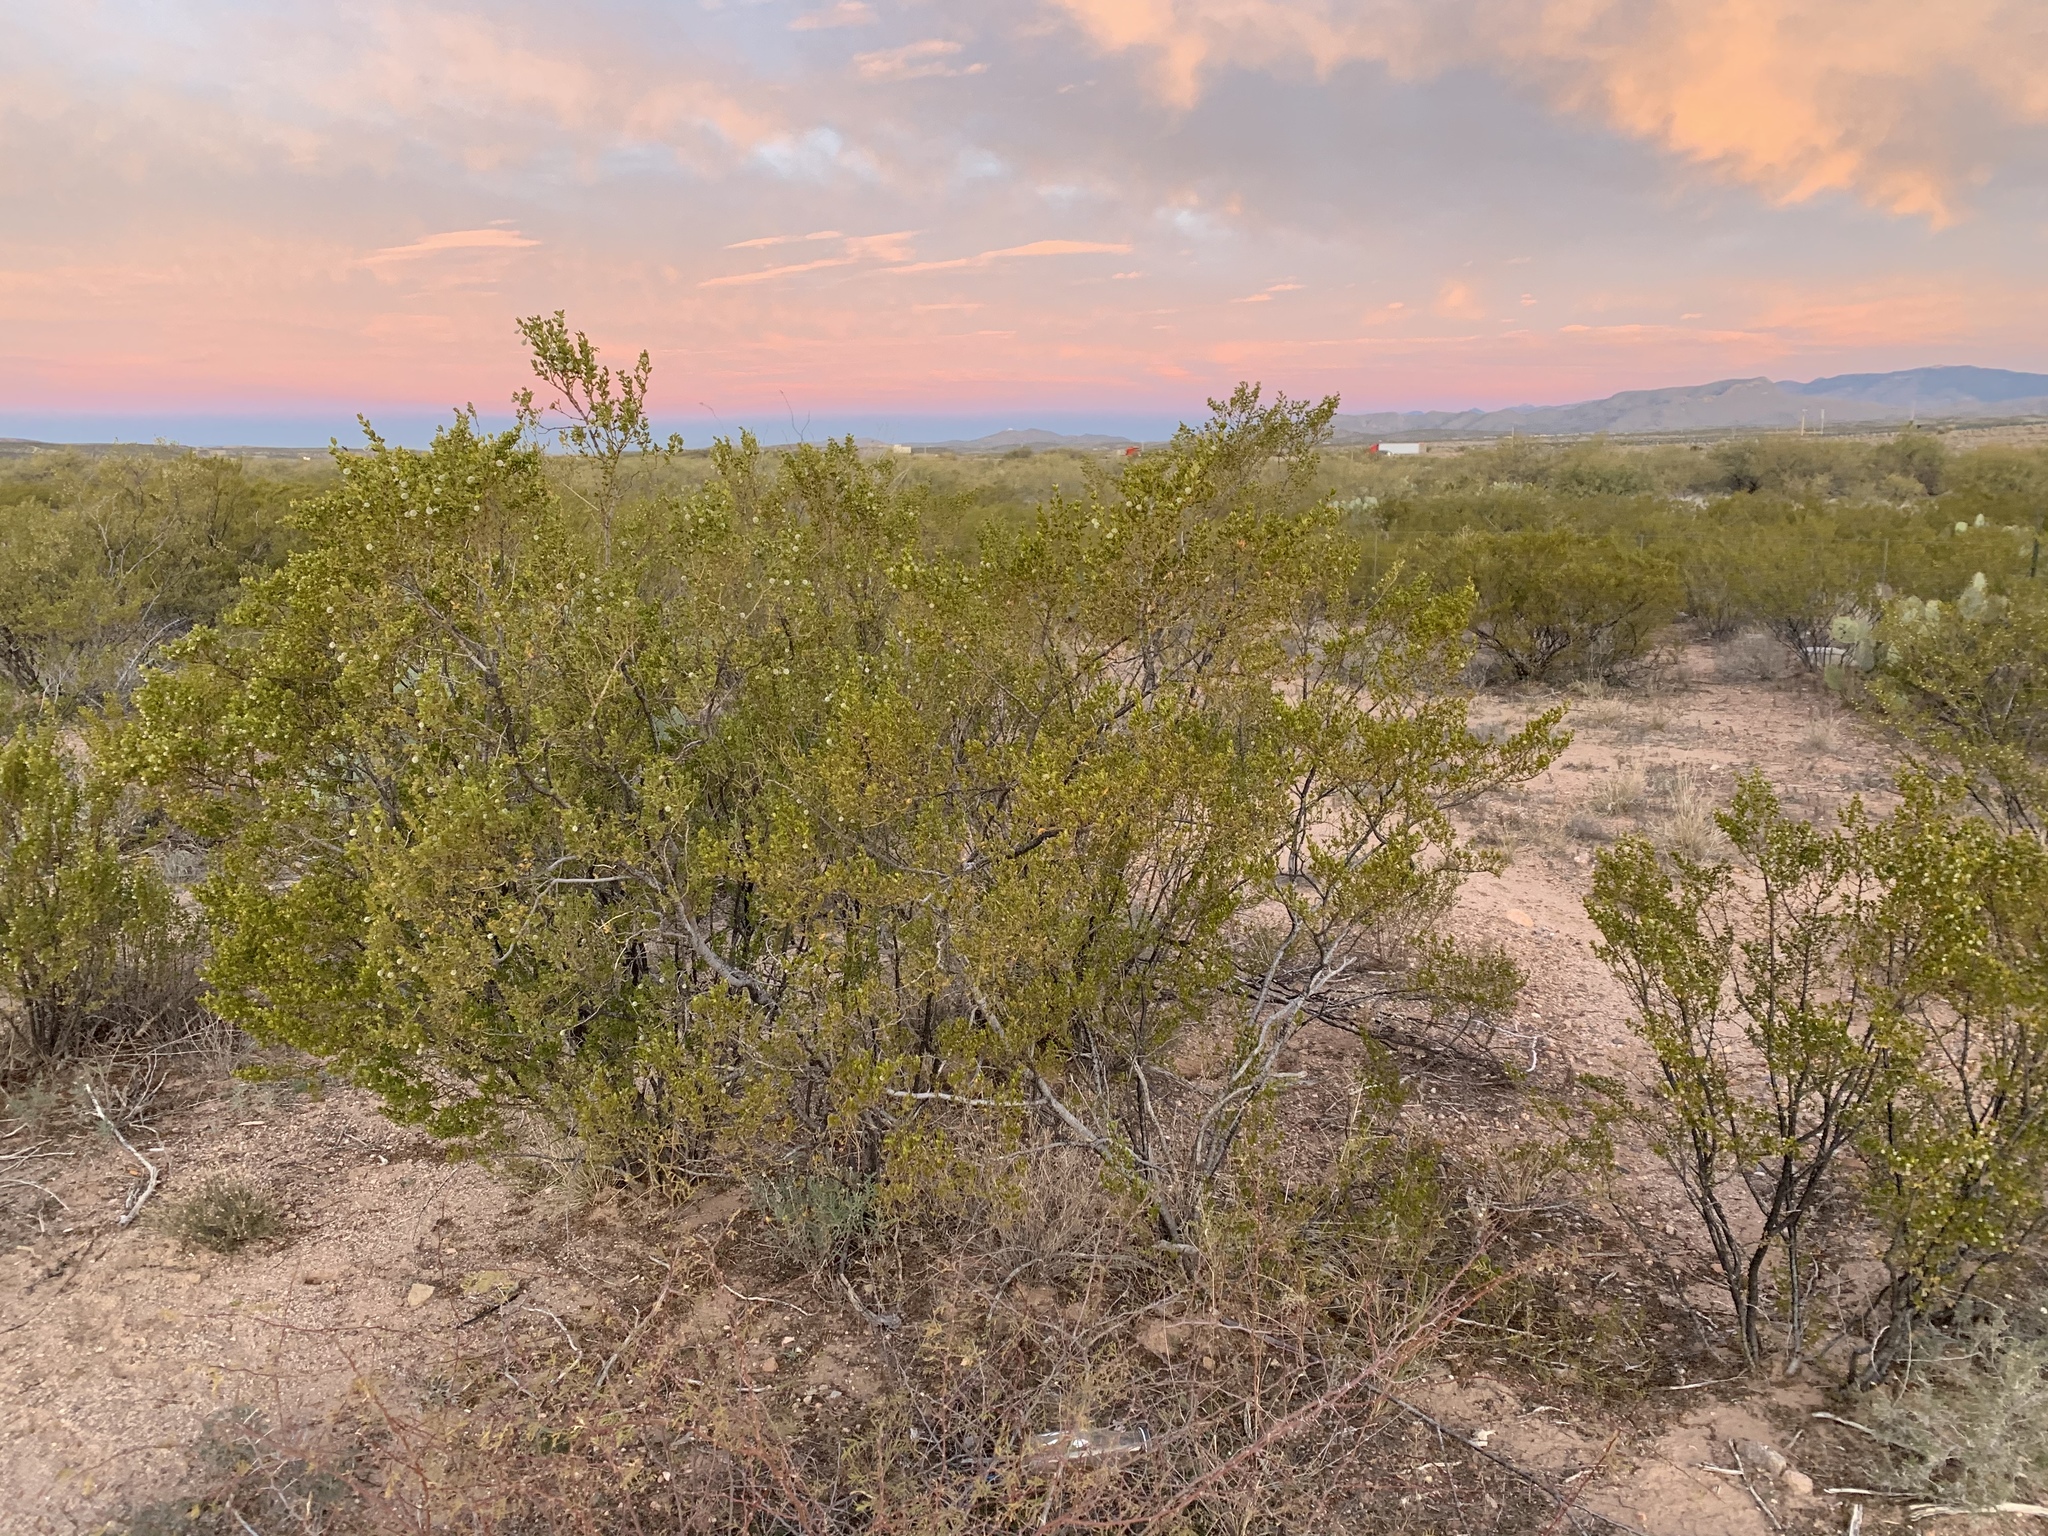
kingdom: Plantae
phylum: Tracheophyta
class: Magnoliopsida
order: Zygophyllales
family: Zygophyllaceae
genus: Larrea
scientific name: Larrea tridentata
